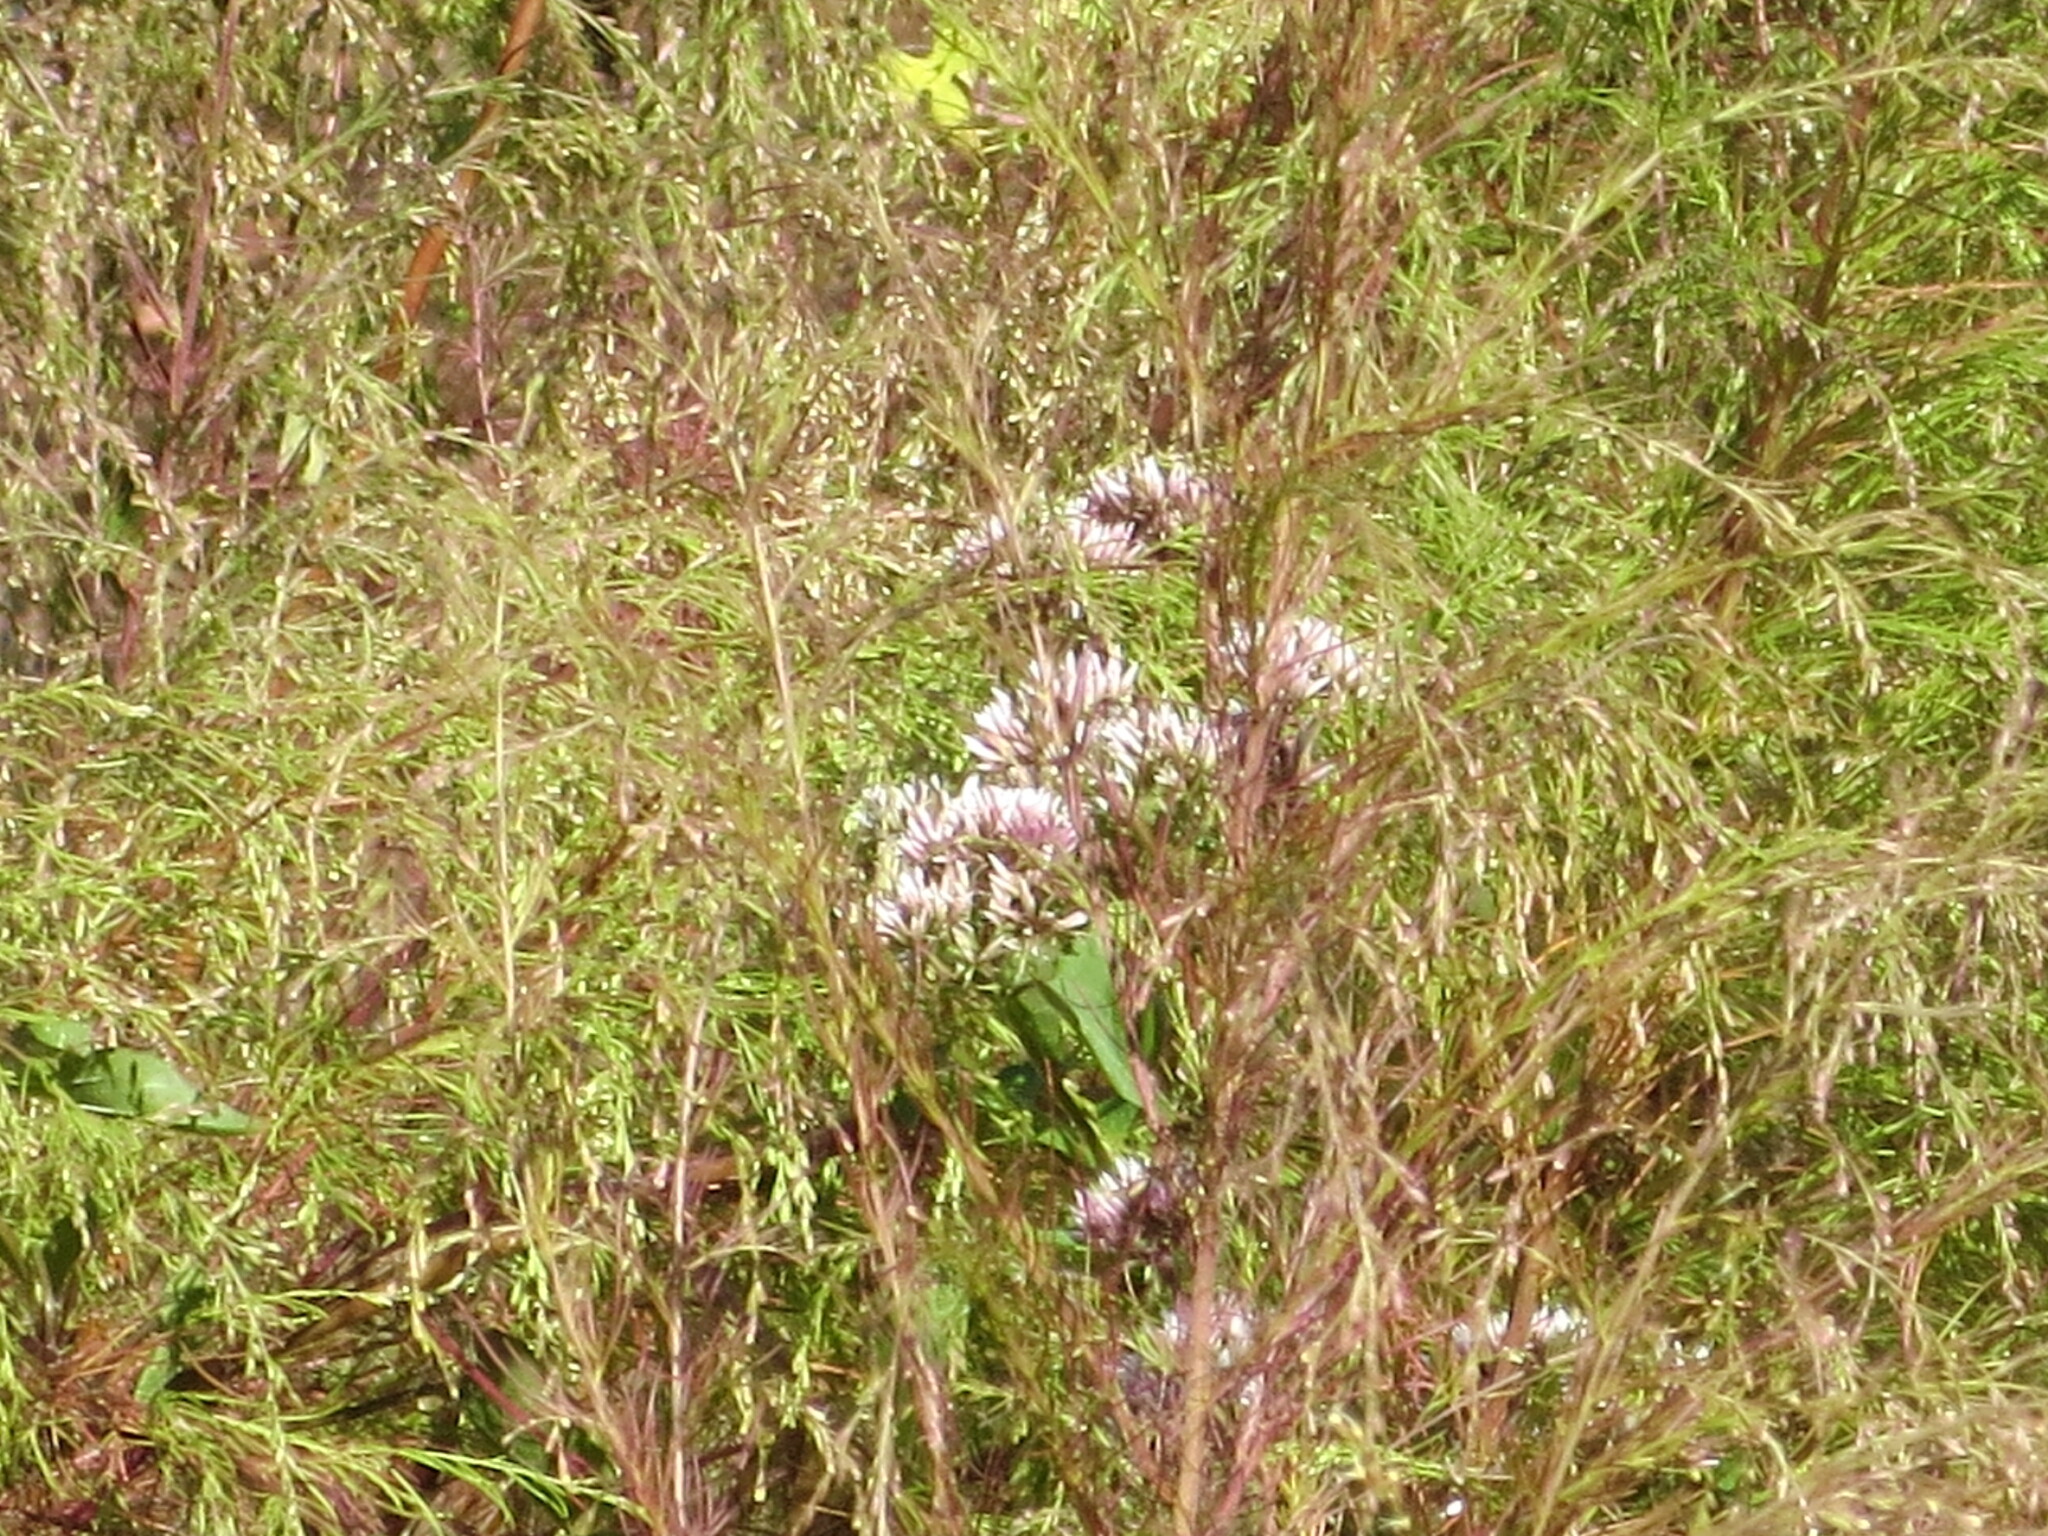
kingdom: Plantae
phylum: Tracheophyta
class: Magnoliopsida
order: Asterales
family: Asteraceae
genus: Mikania
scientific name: Mikania scandens
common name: Climbing hempvine
